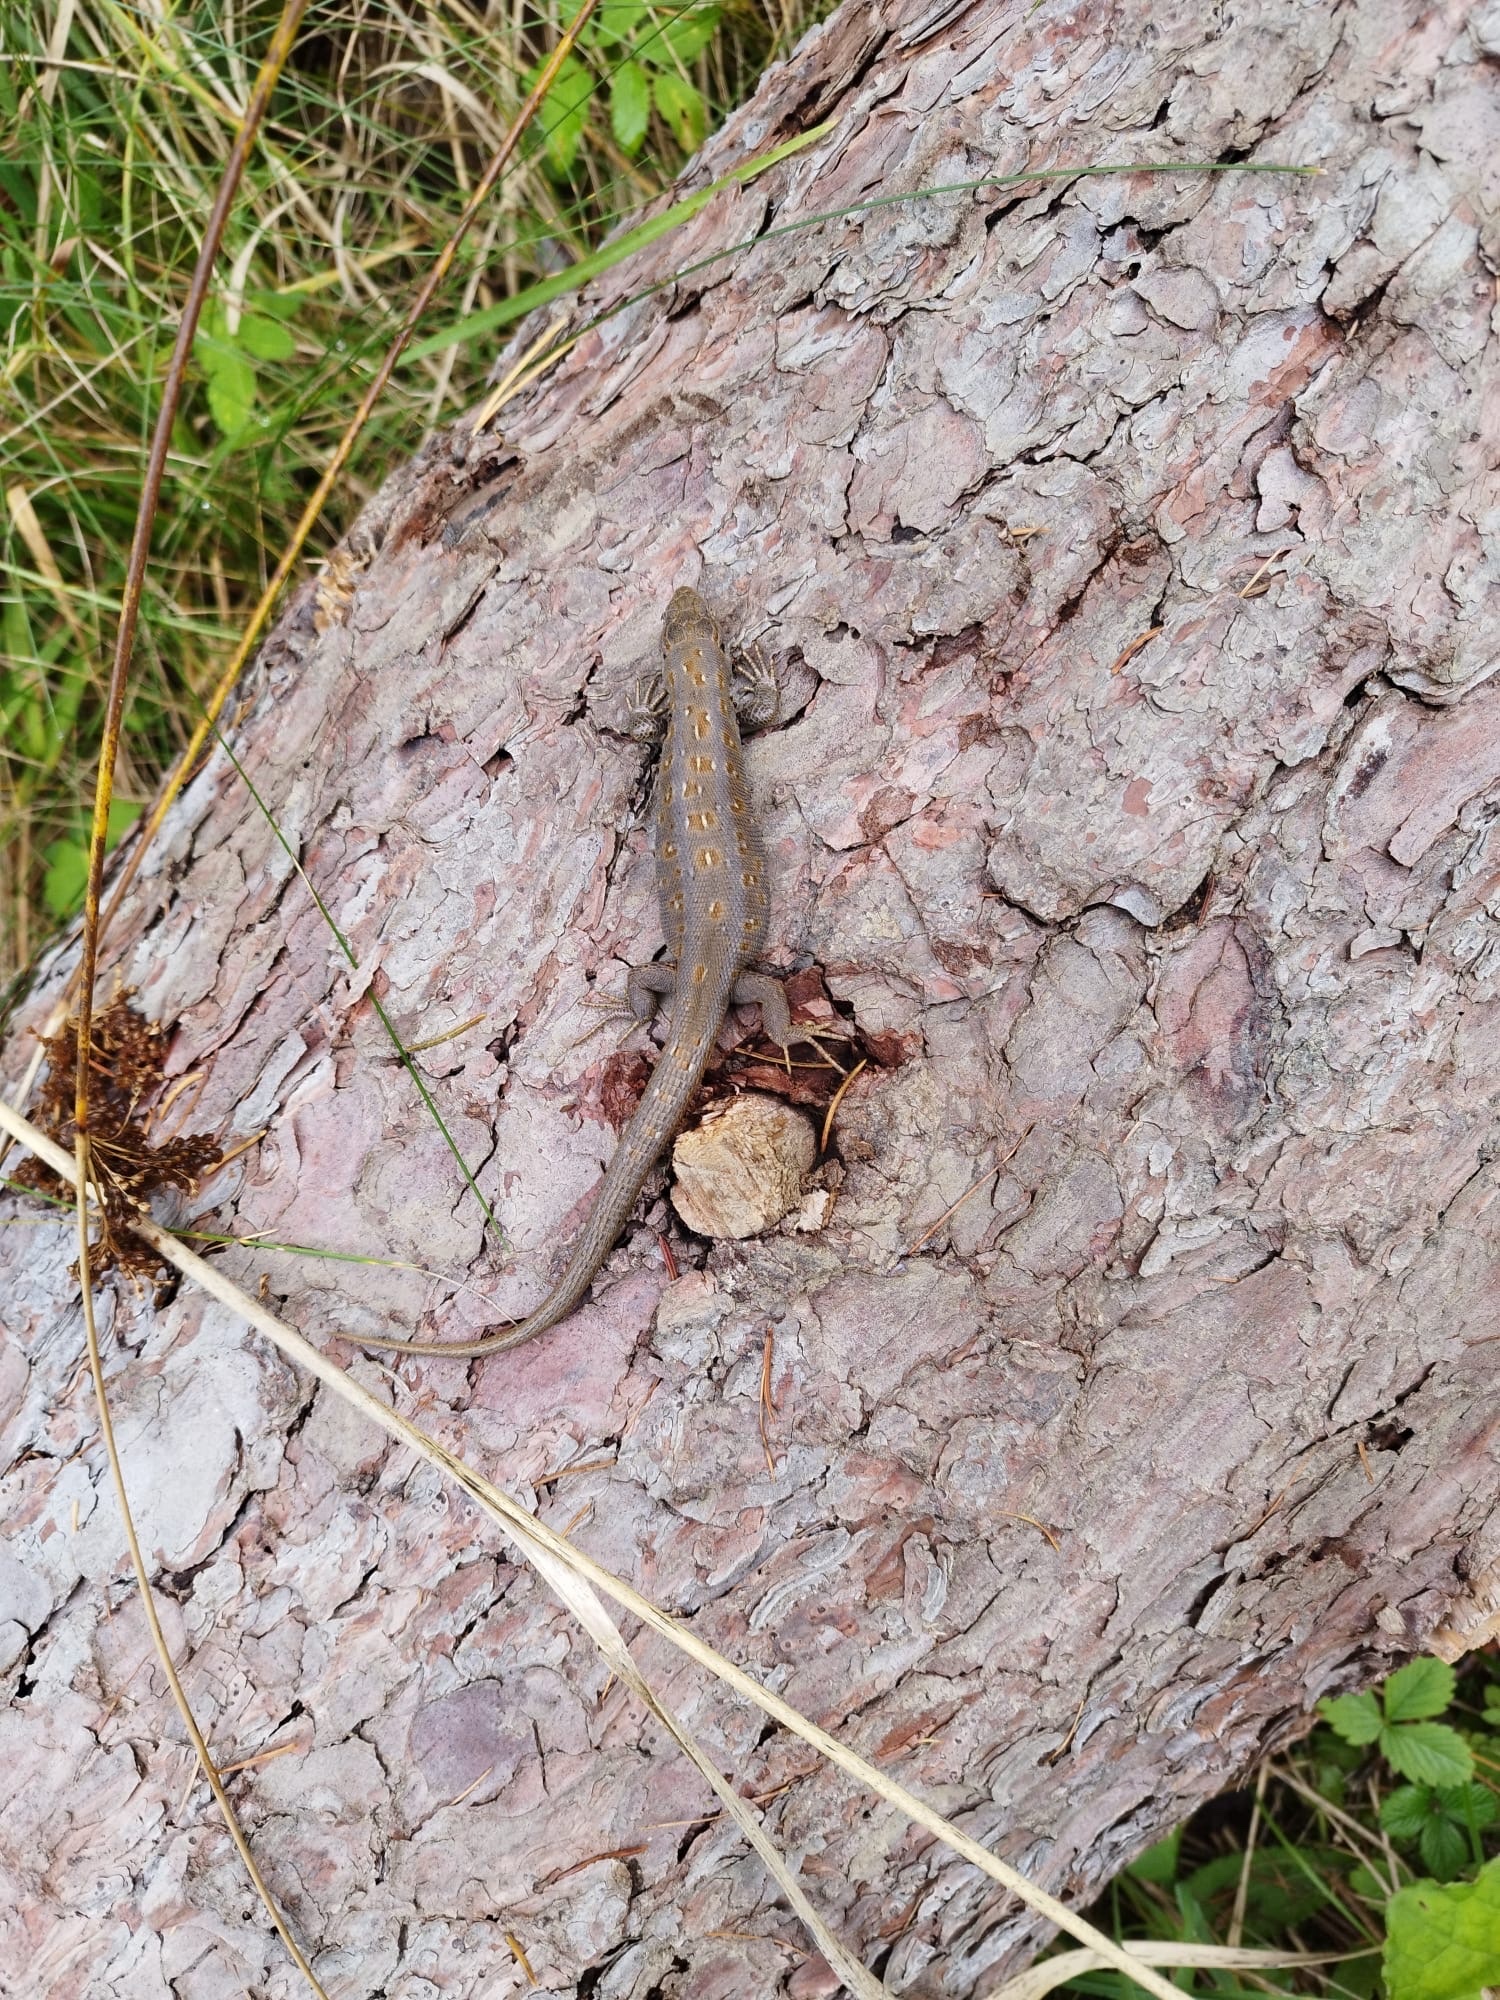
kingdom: Animalia
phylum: Chordata
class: Squamata
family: Lacertidae
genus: Lacerta
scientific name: Lacerta agilis
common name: Sand lizard
